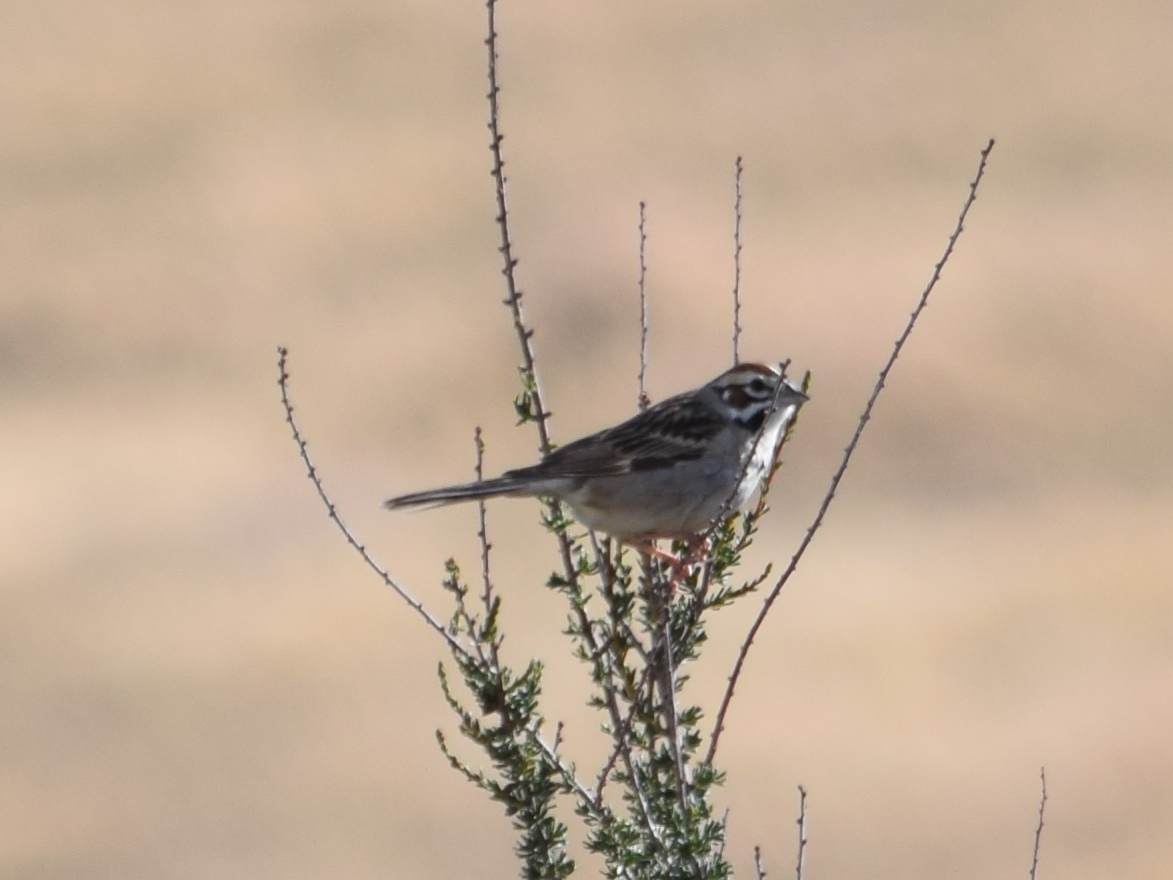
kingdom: Animalia
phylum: Chordata
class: Aves
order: Passeriformes
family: Passerellidae
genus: Chondestes
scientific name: Chondestes grammacus
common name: Lark sparrow
